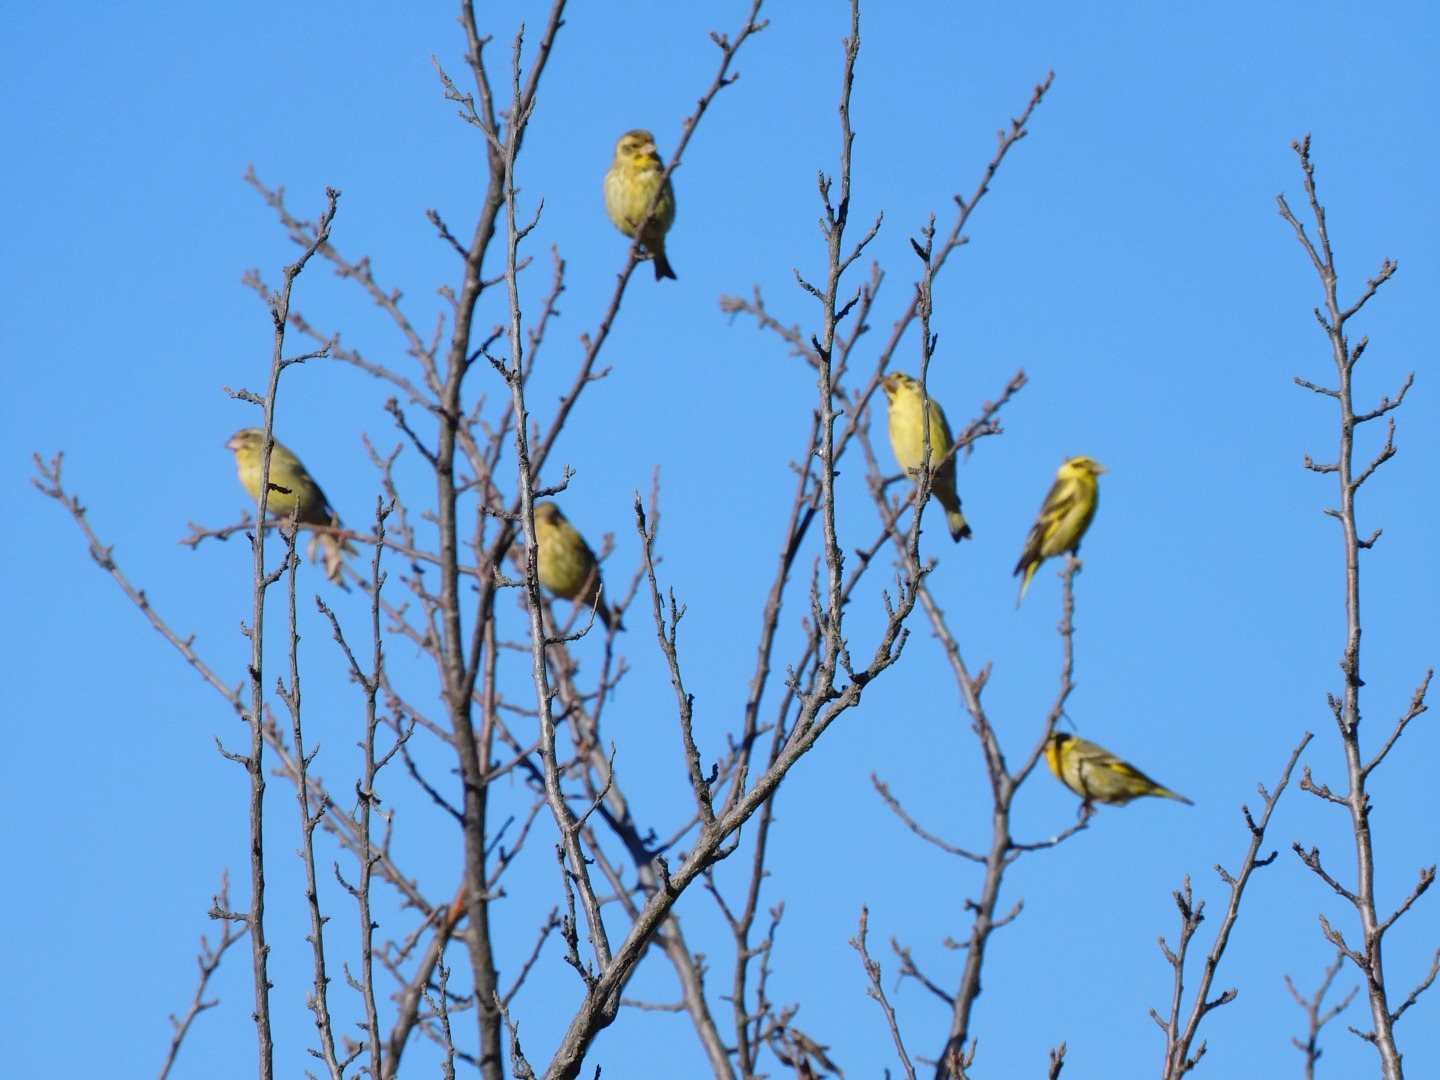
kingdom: Animalia
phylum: Chordata
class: Aves
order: Passeriformes
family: Fringillidae
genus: Chloris
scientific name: Chloris spinoides
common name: Yellow-breasted greenfinch
